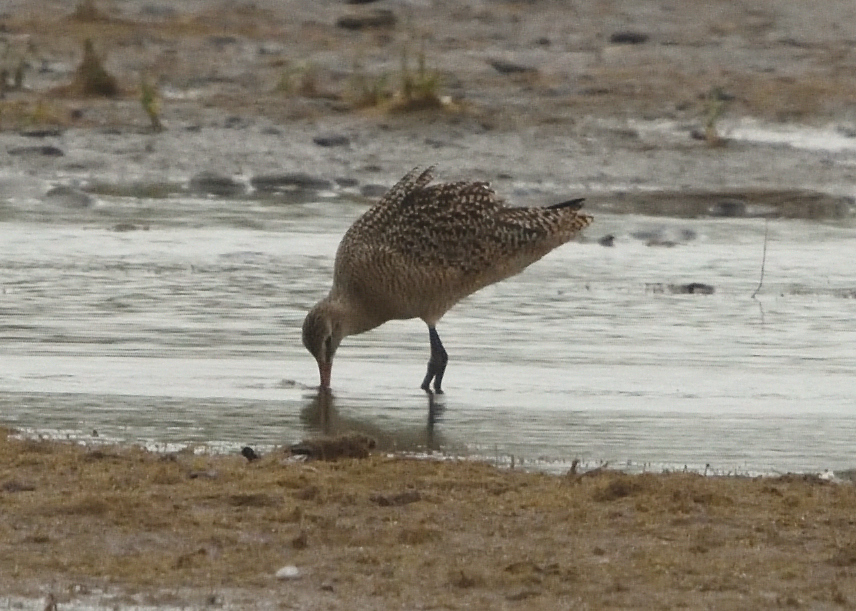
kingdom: Animalia
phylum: Chordata
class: Aves
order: Charadriiformes
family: Scolopacidae
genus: Limosa
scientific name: Limosa fedoa
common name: Marbled godwit
